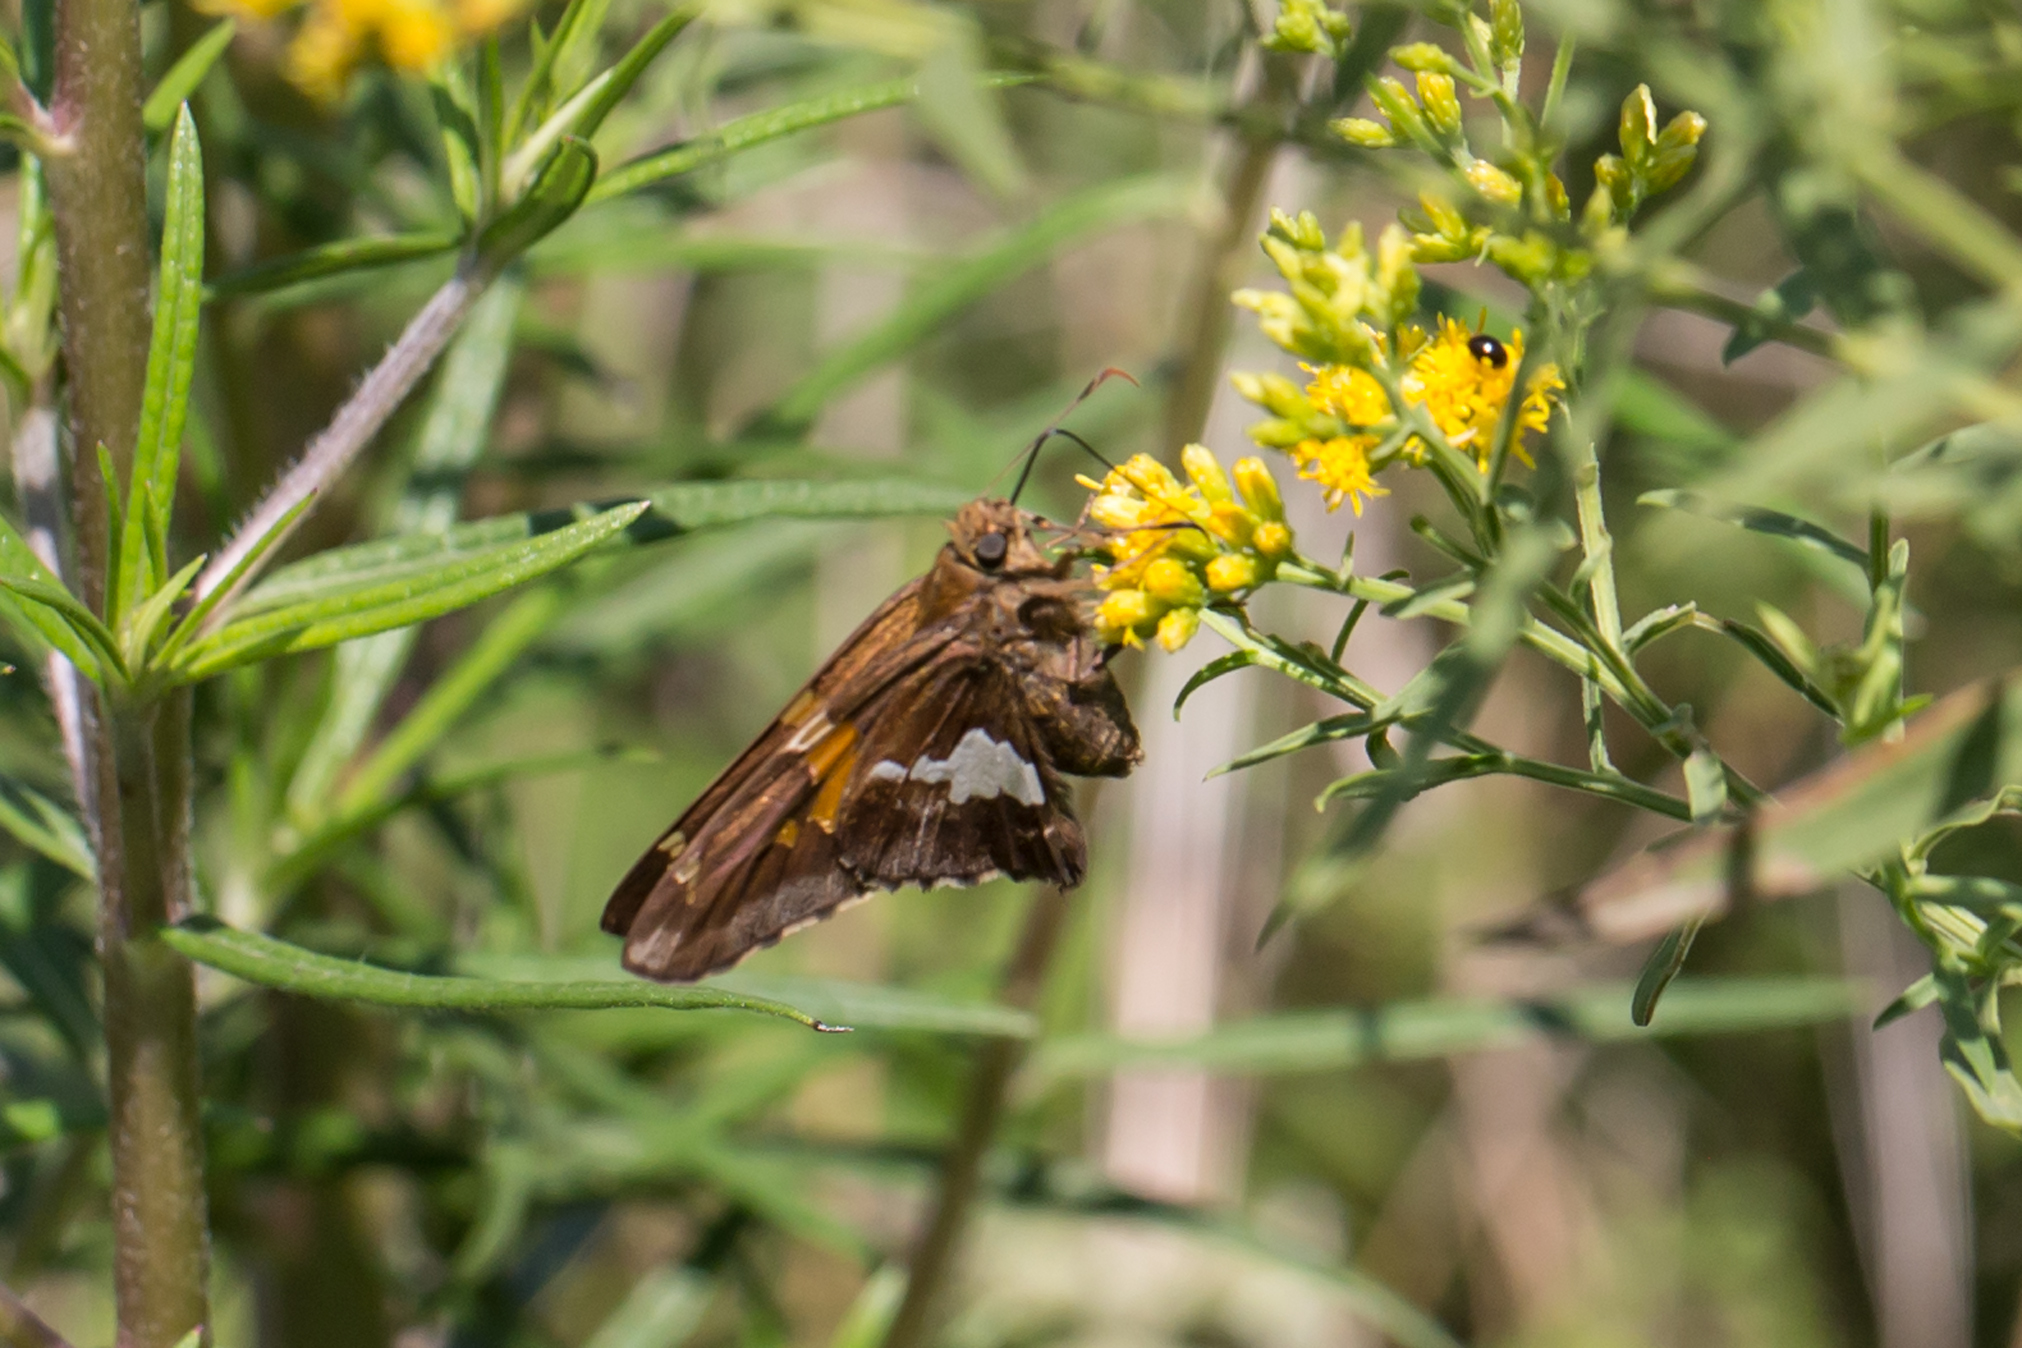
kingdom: Animalia
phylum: Arthropoda
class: Insecta
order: Lepidoptera
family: Hesperiidae
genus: Epargyreus
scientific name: Epargyreus clarus
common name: Silver-spotted skipper
